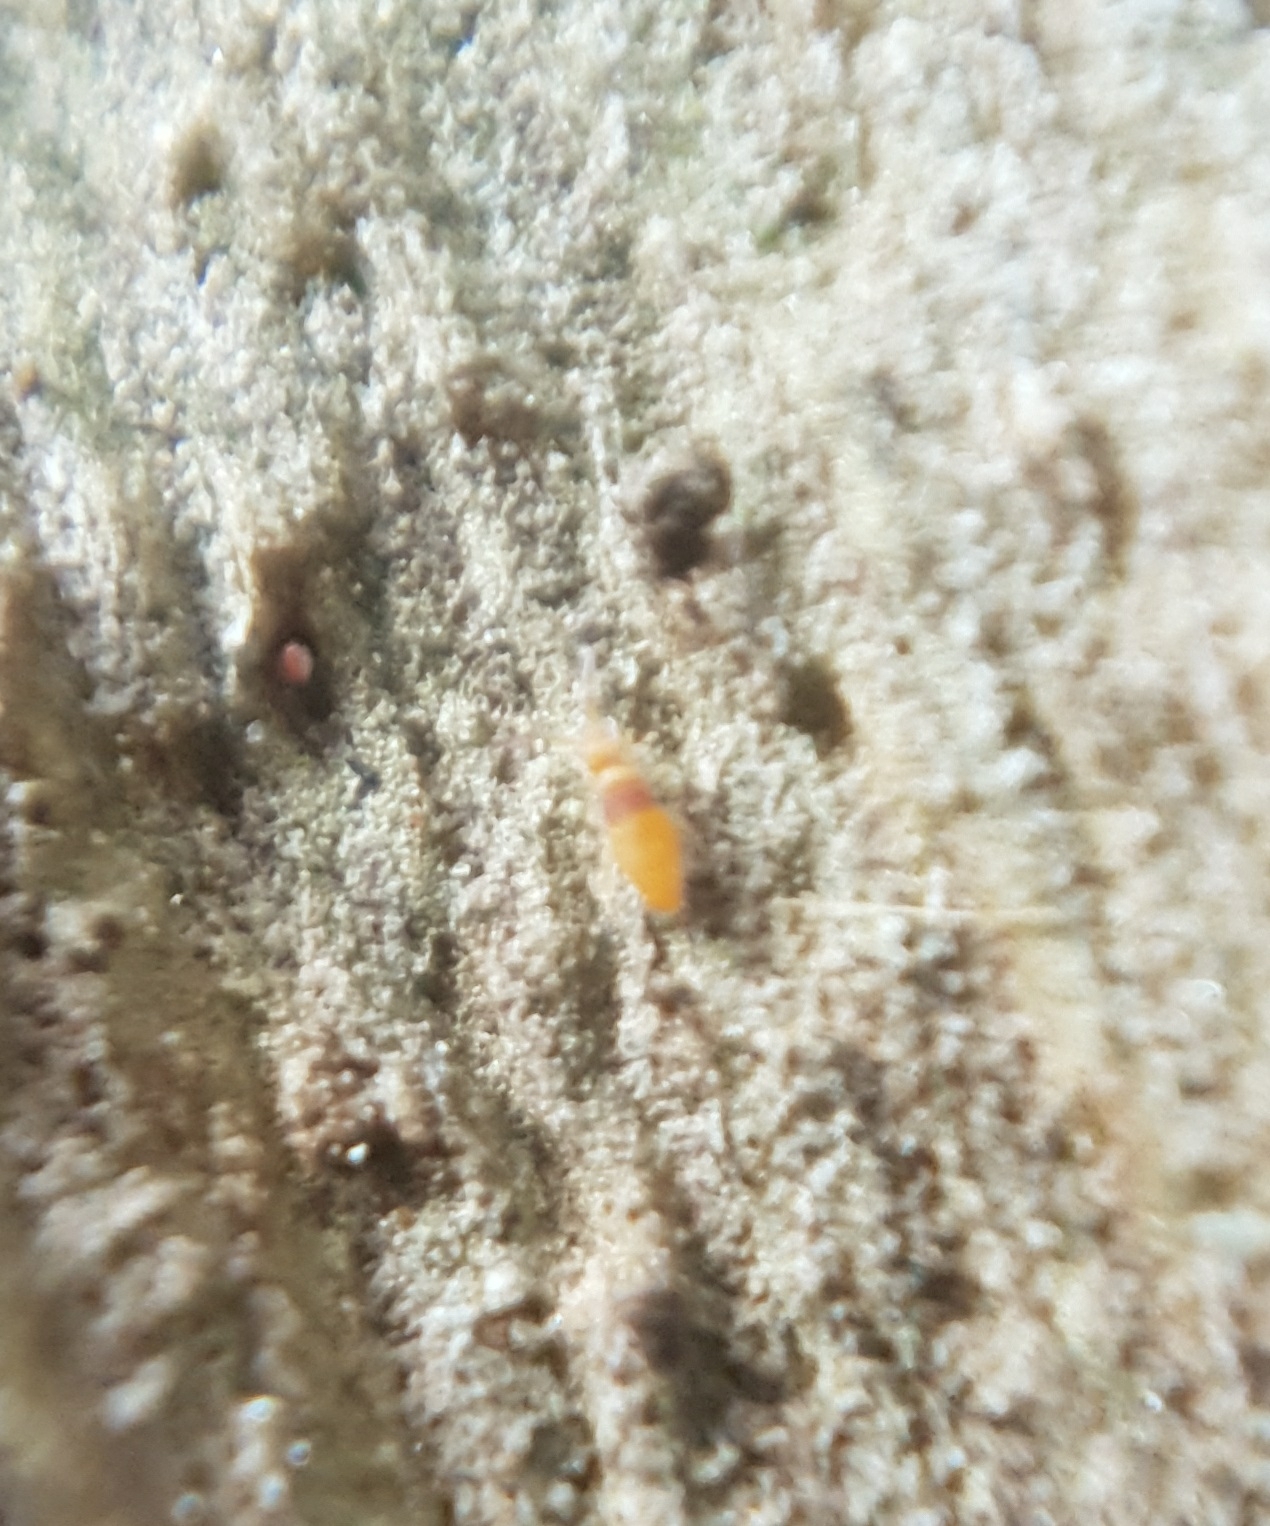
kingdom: Animalia
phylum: Arthropoda
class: Collembola
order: Entomobryomorpha
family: Entomobryidae
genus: Entomobrya
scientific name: Entomobrya nigrocincta
